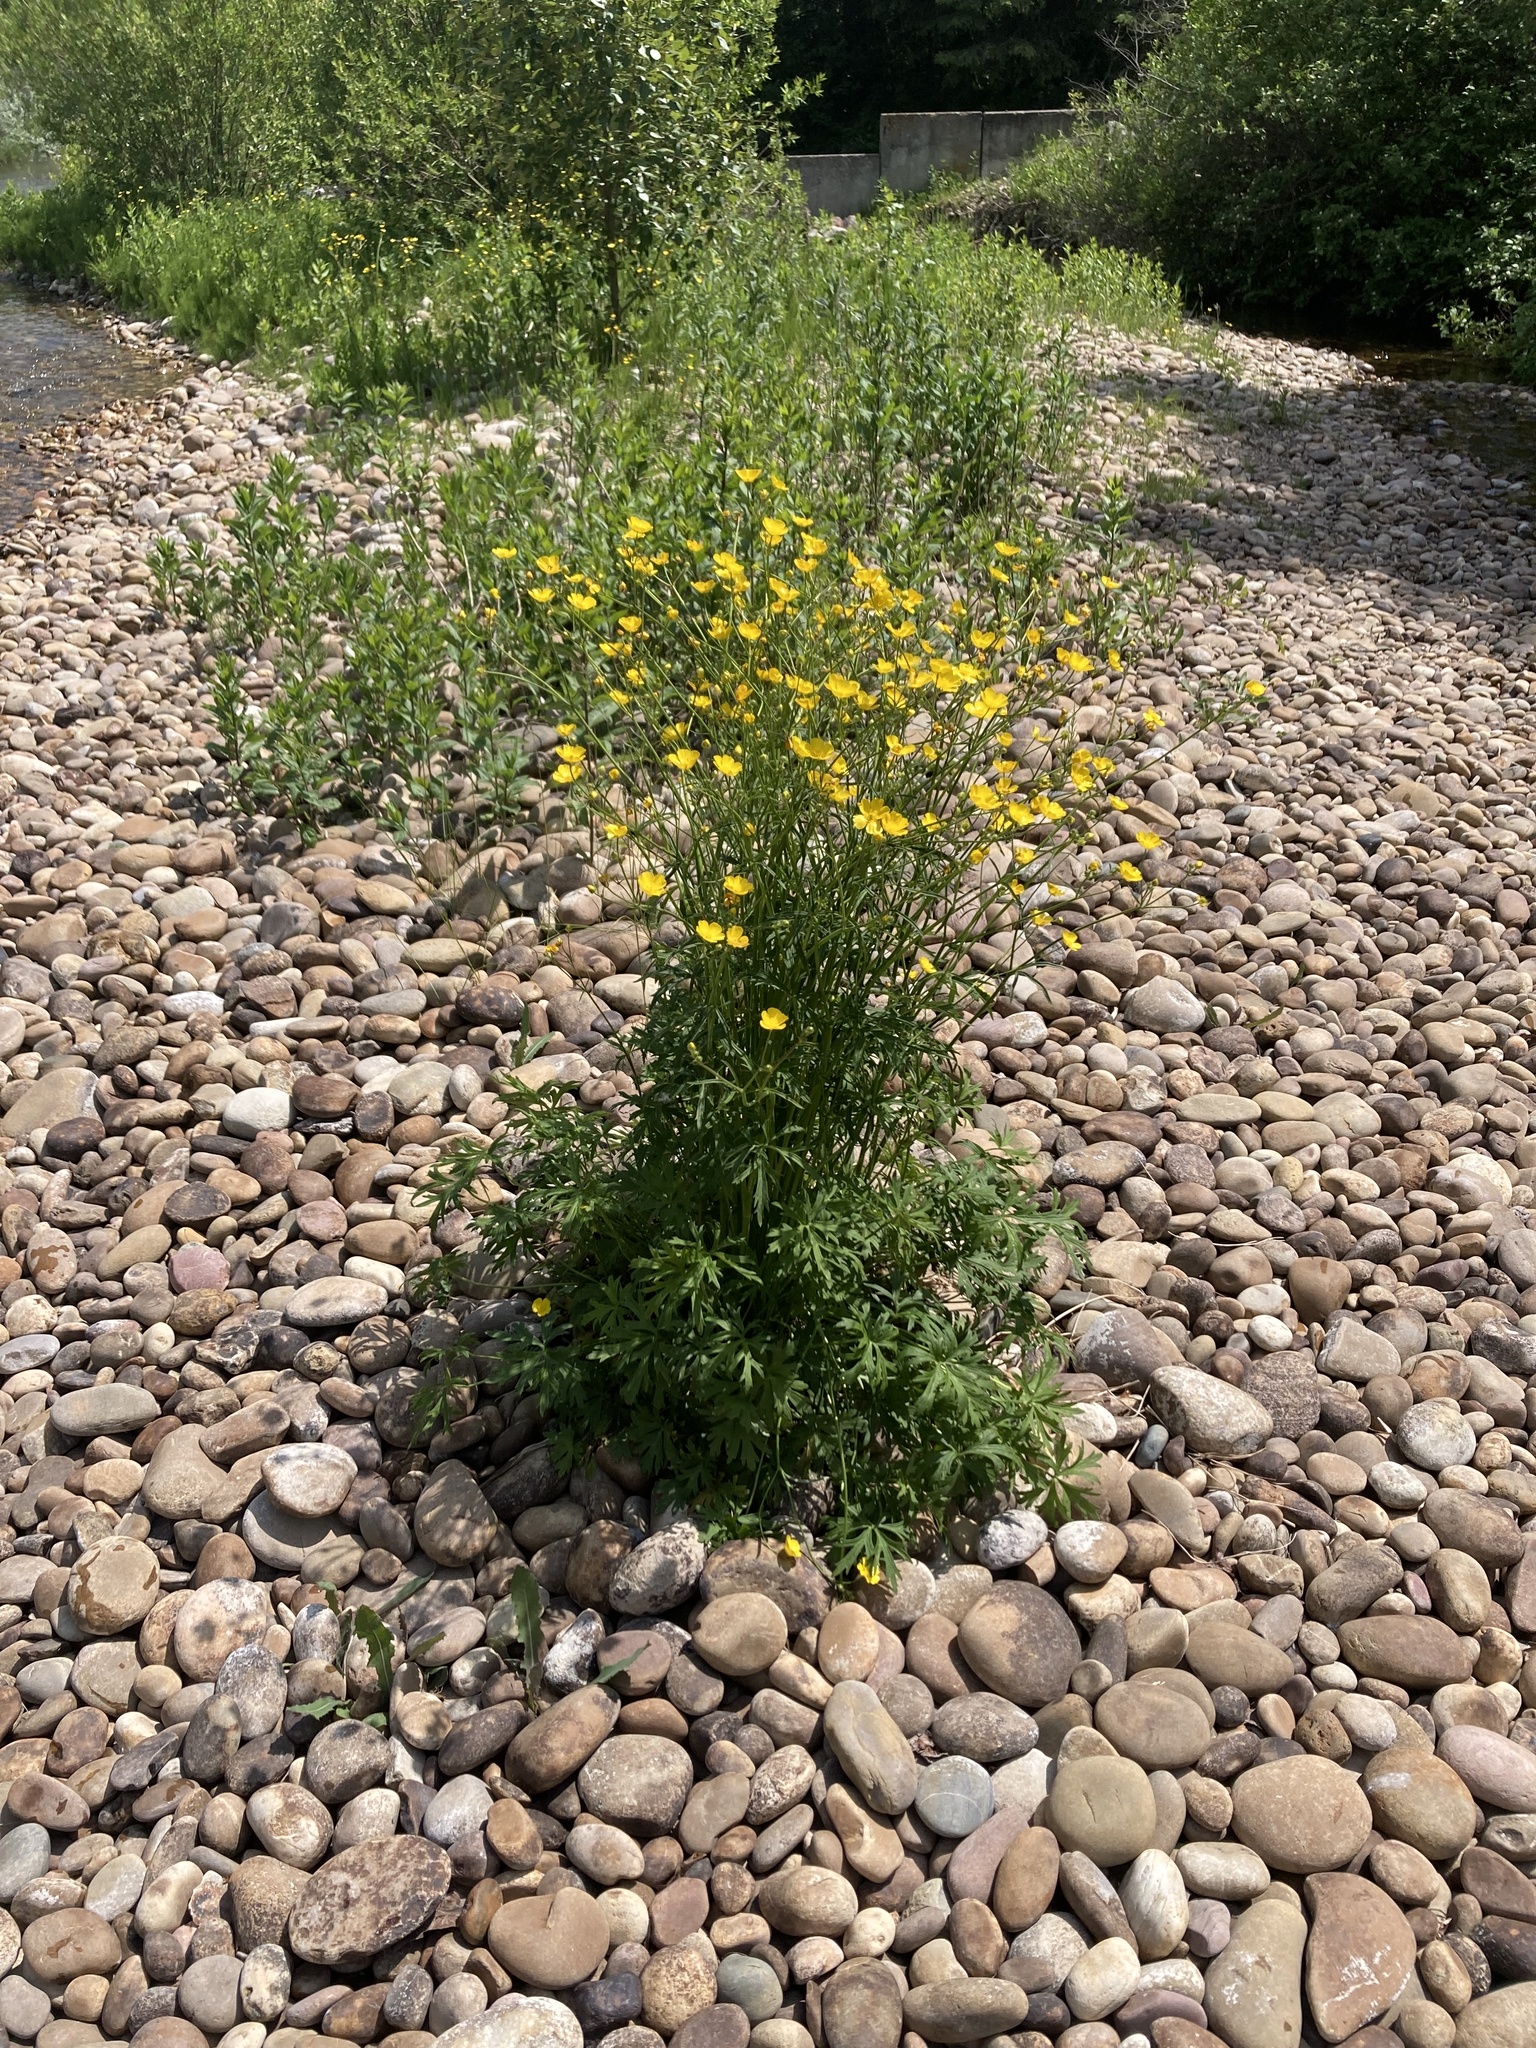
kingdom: Plantae
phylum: Tracheophyta
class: Magnoliopsida
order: Ranunculales
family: Ranunculaceae
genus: Ranunculus
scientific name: Ranunculus acris
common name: Meadow buttercup
